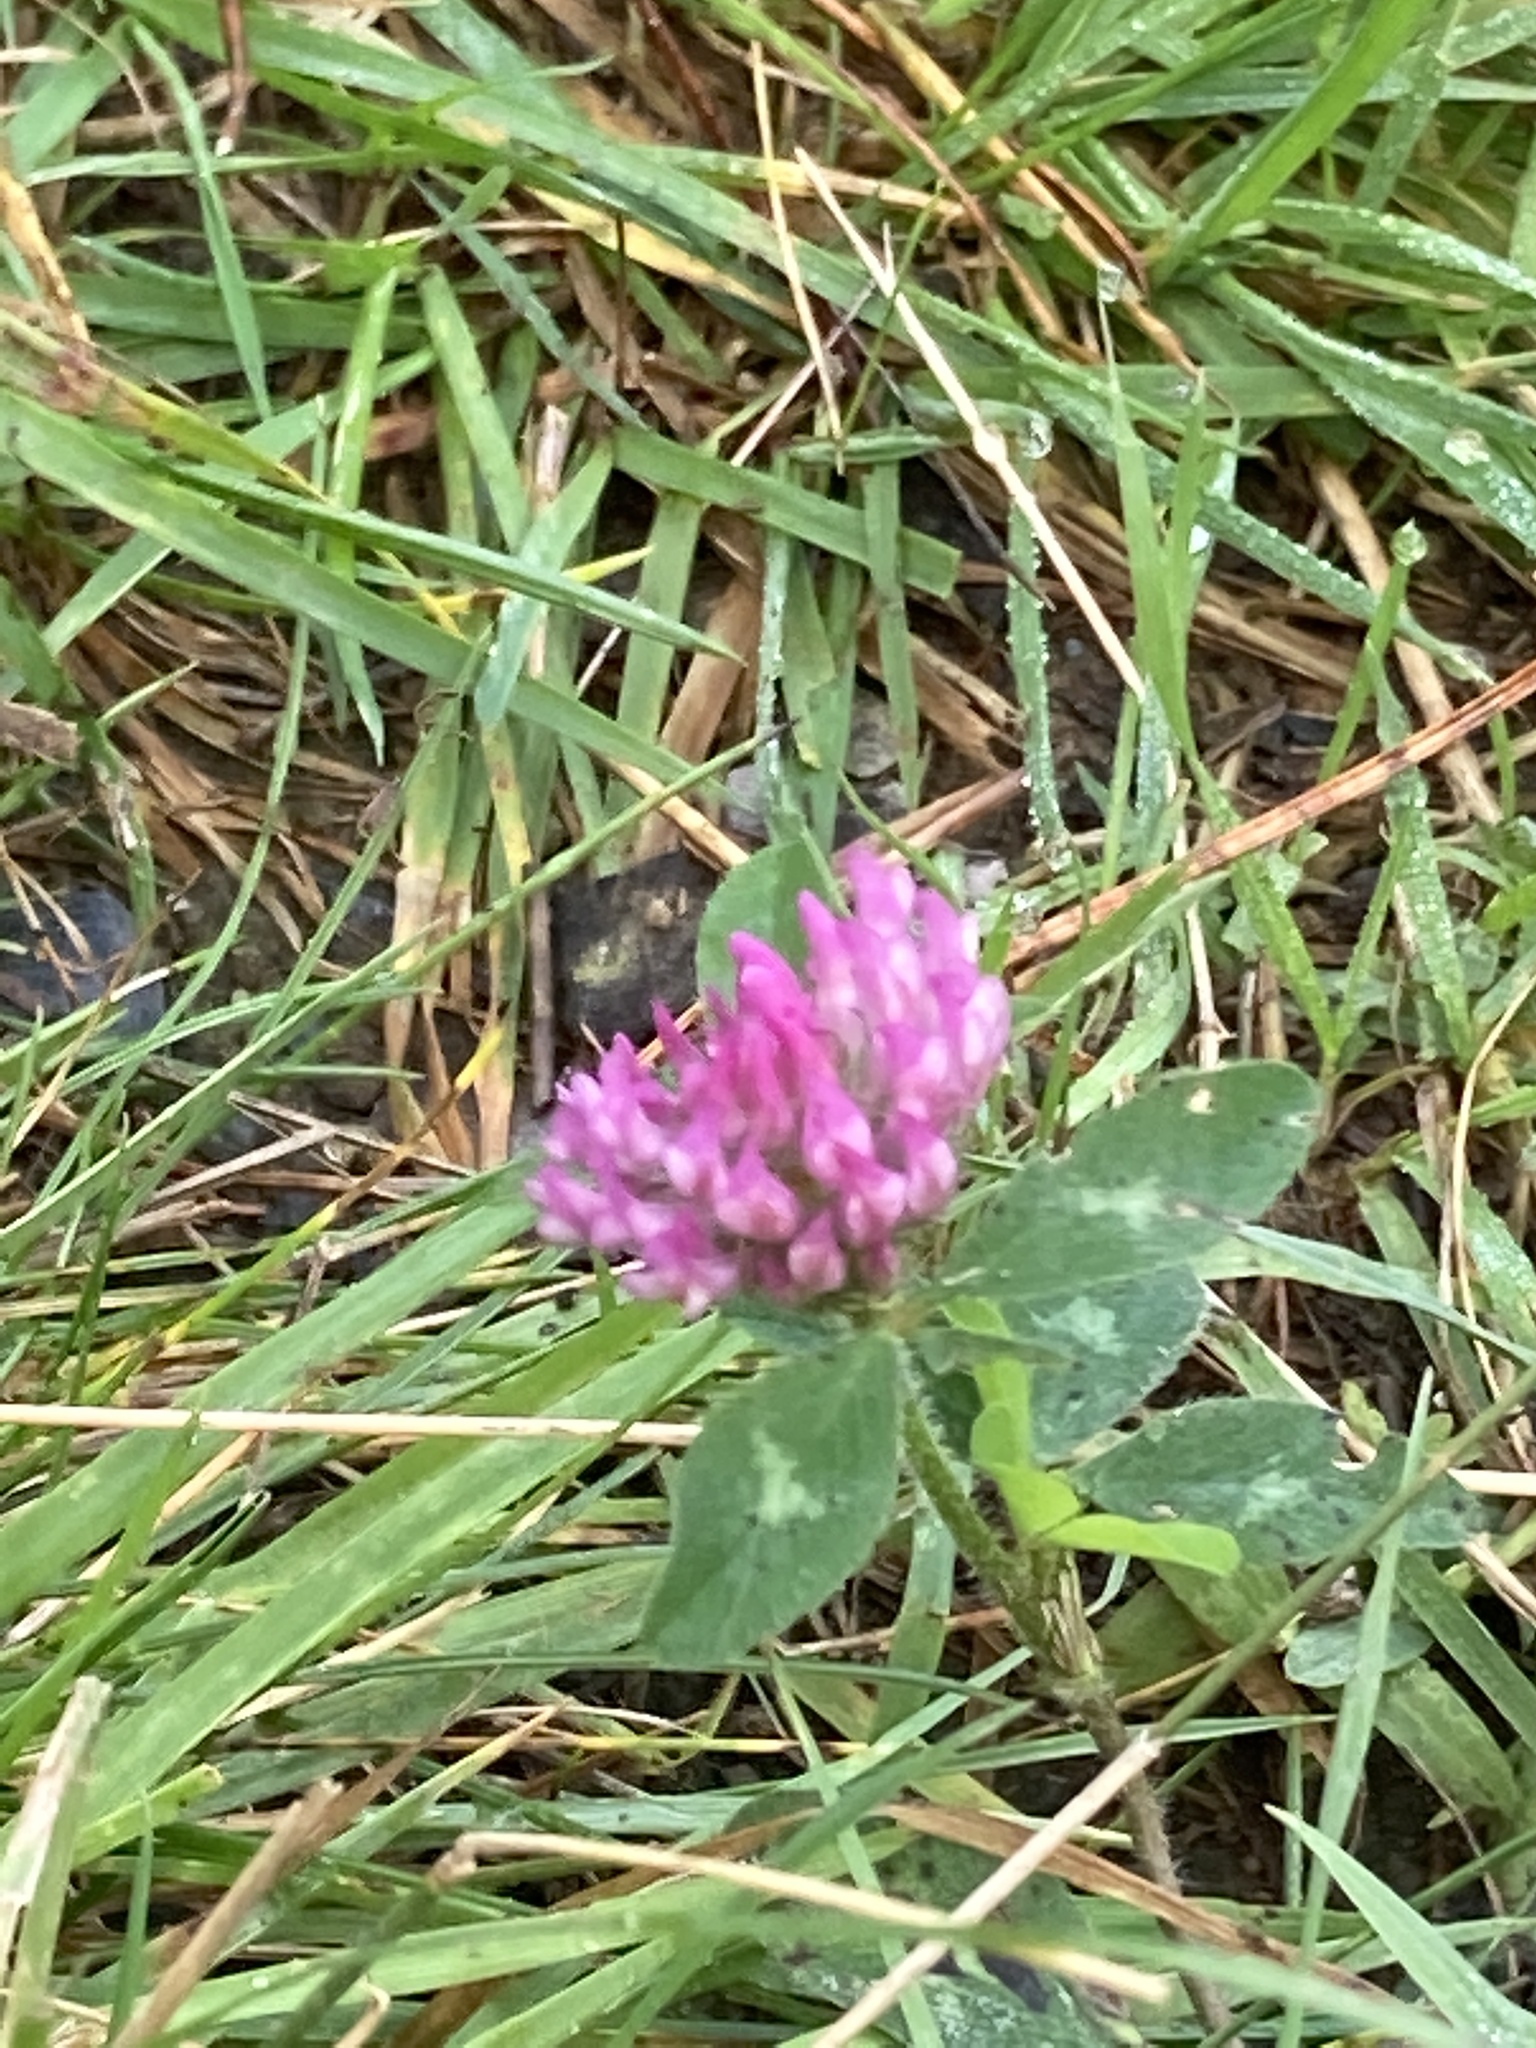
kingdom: Plantae
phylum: Tracheophyta
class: Magnoliopsida
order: Fabales
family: Fabaceae
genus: Trifolium
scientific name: Trifolium pratense
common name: Red clover
